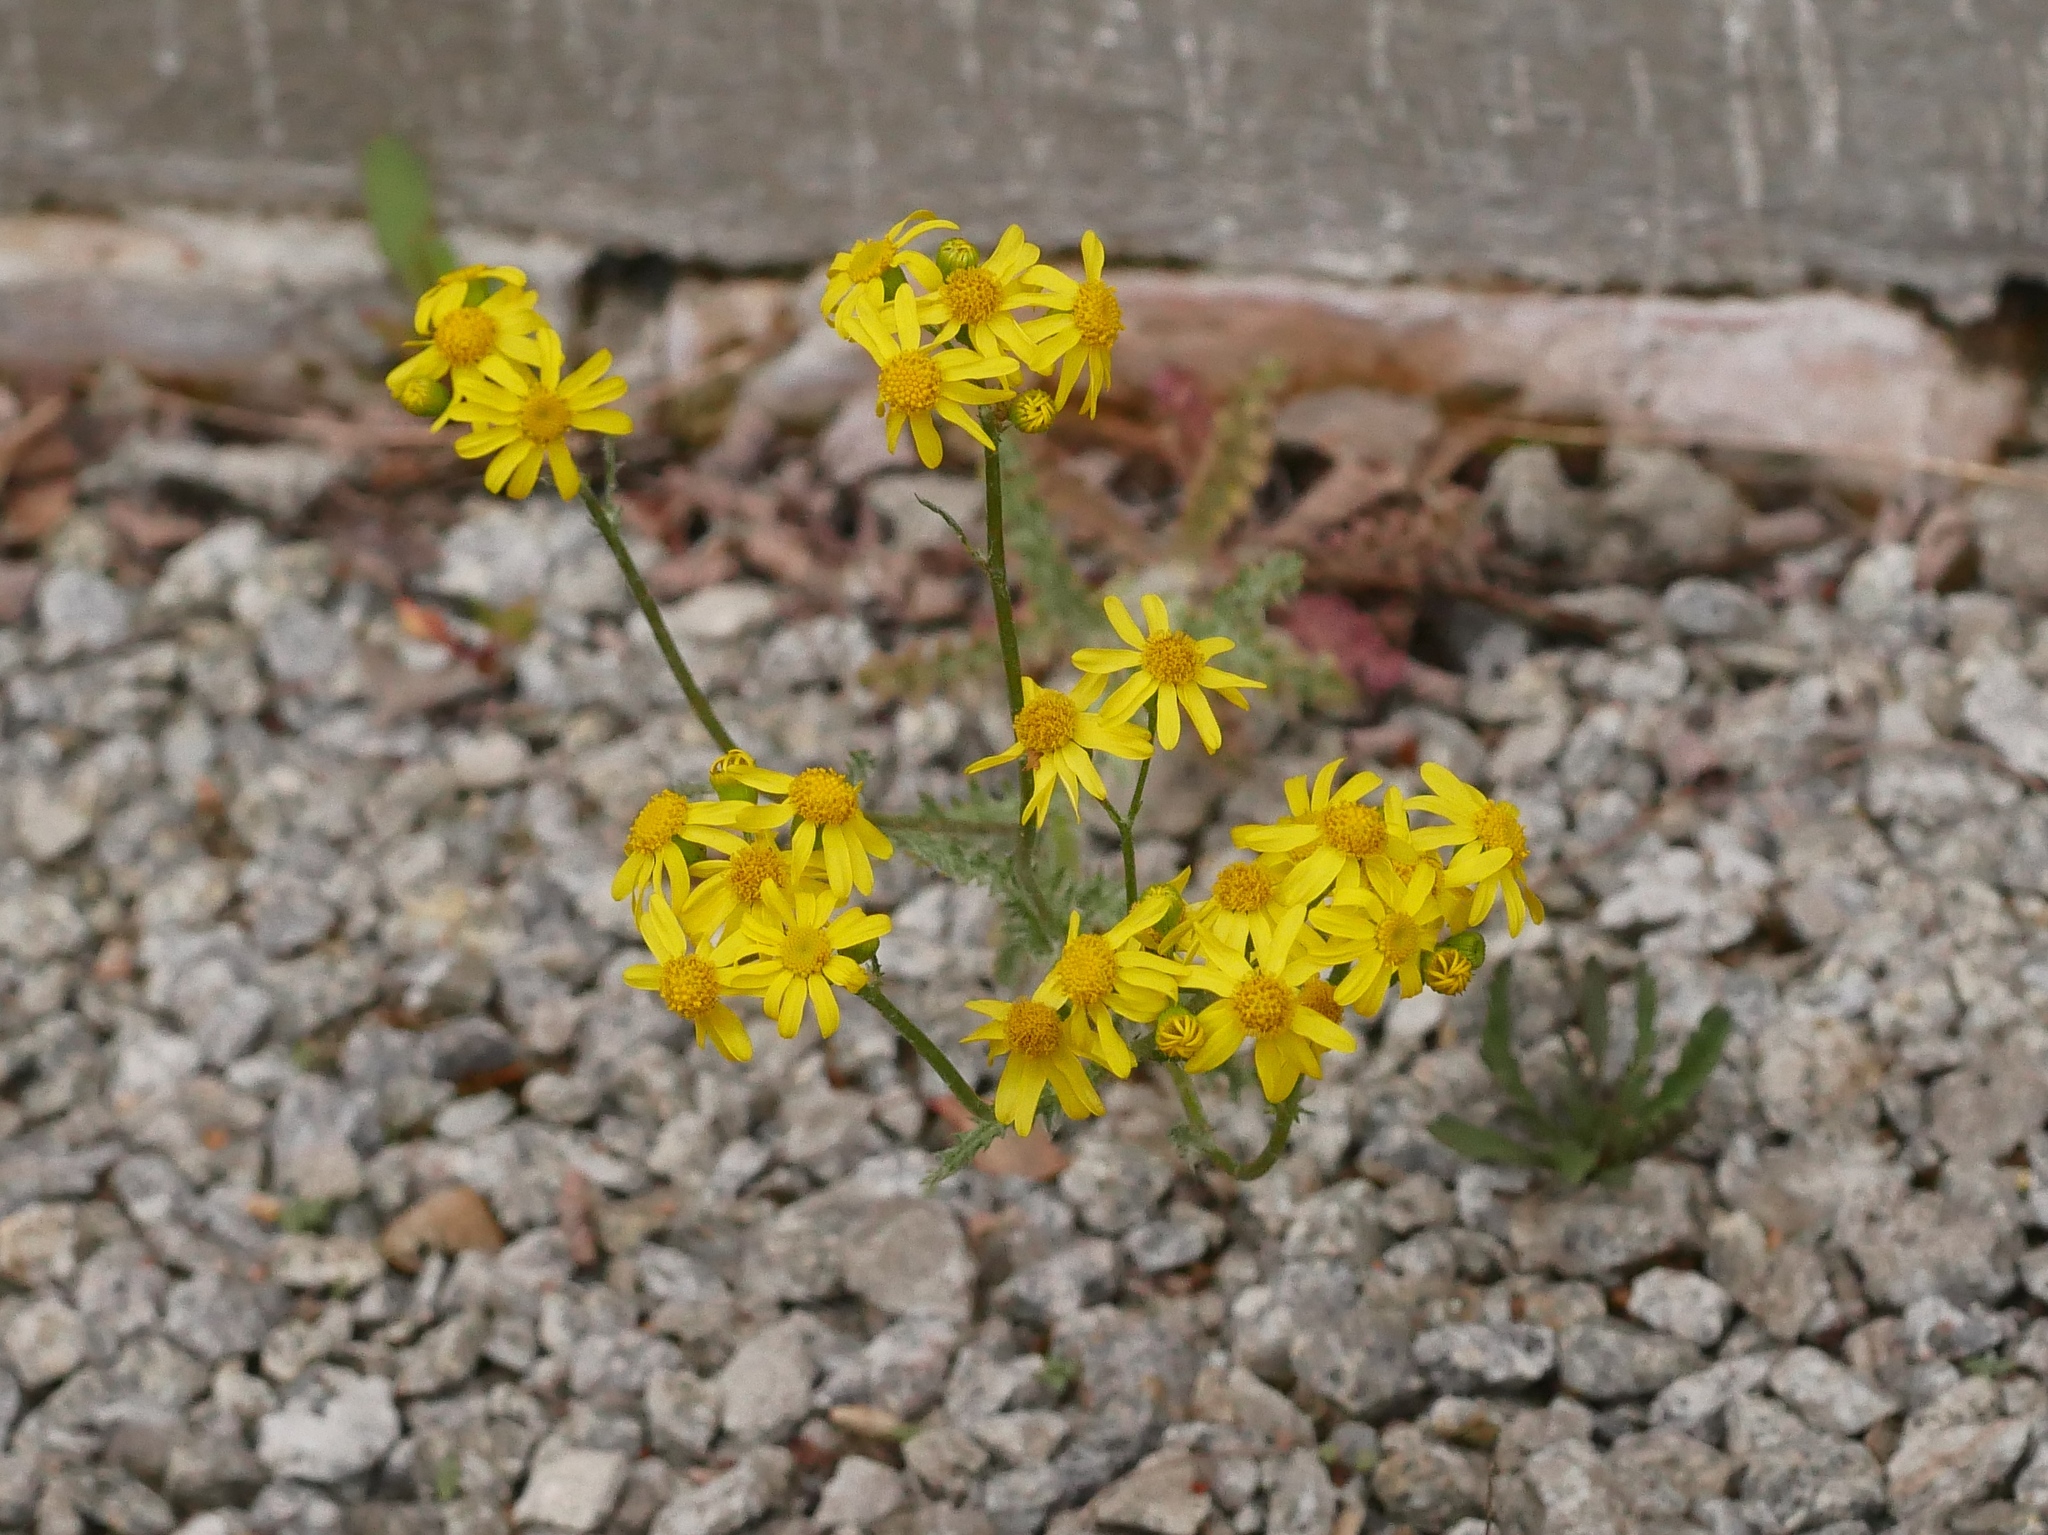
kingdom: Plantae
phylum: Tracheophyta
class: Magnoliopsida
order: Asterales
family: Asteraceae
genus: Senecio
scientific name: Senecio vernalis
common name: Eastern groundsel
